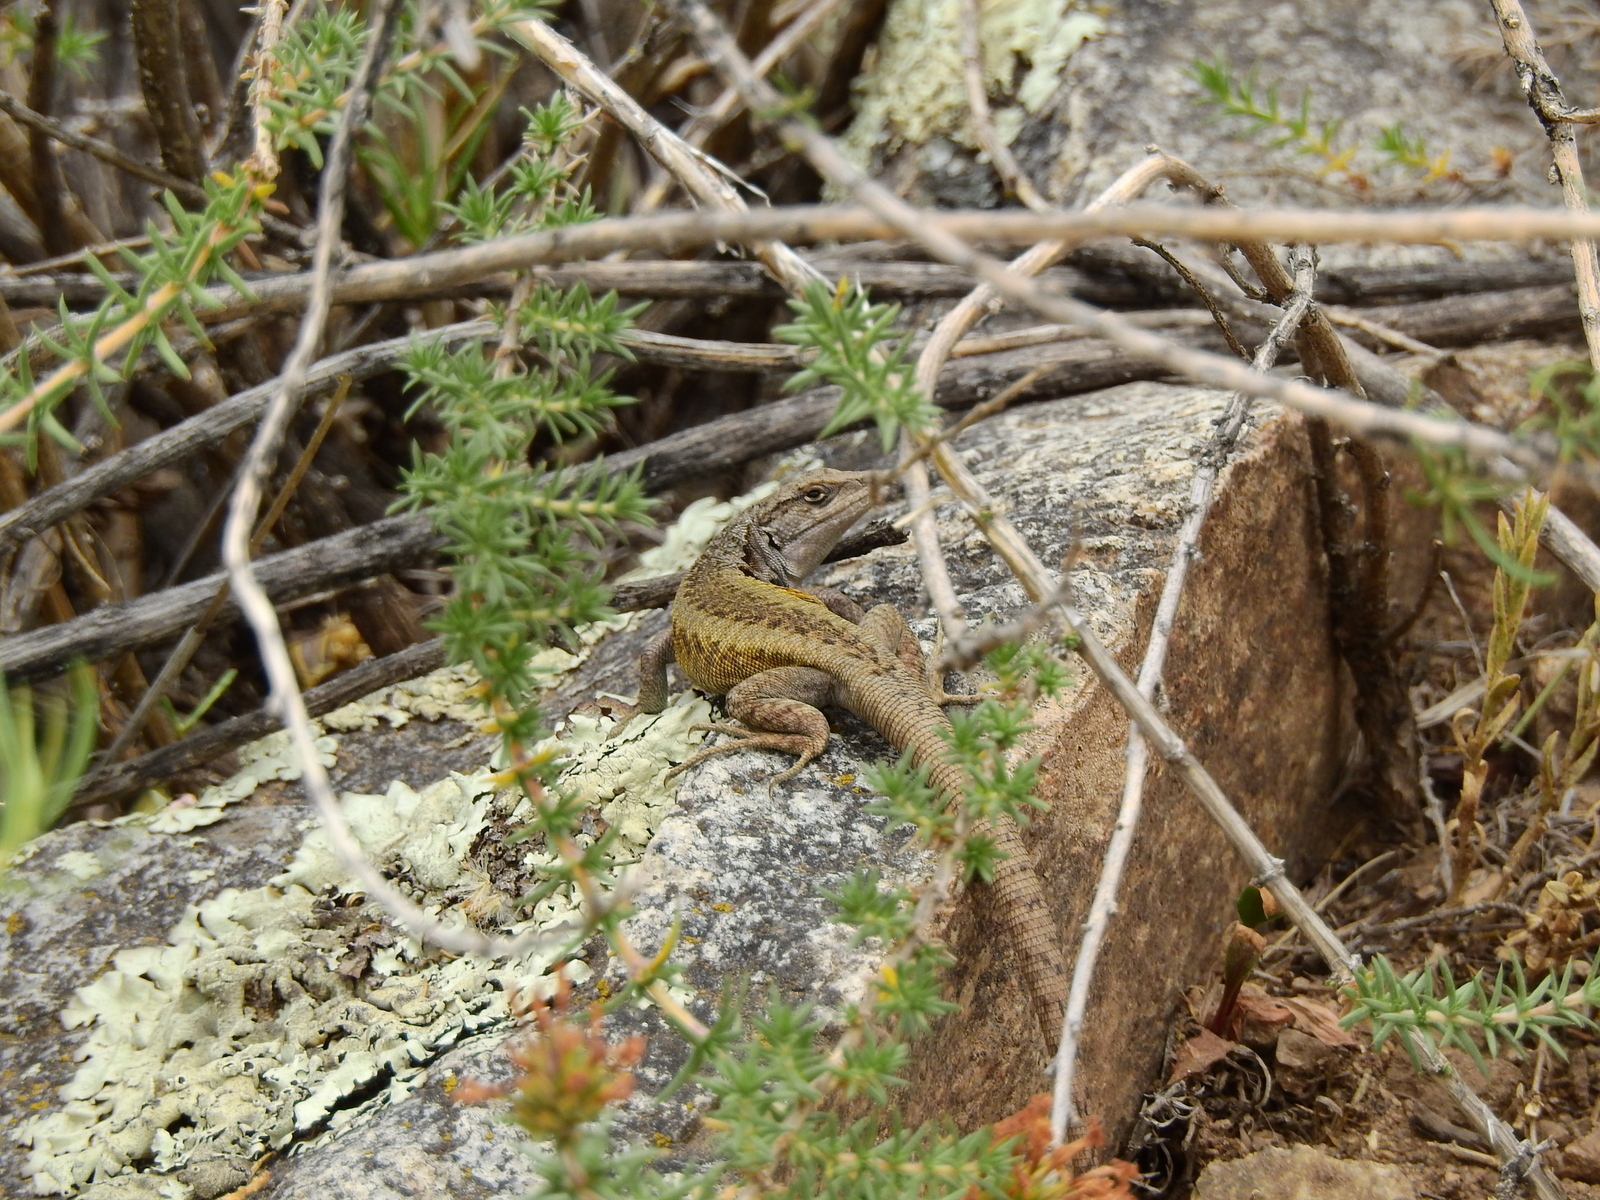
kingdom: Animalia
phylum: Chordata
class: Squamata
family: Liolaemidae
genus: Liolaemus
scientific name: Liolaemus parvus
